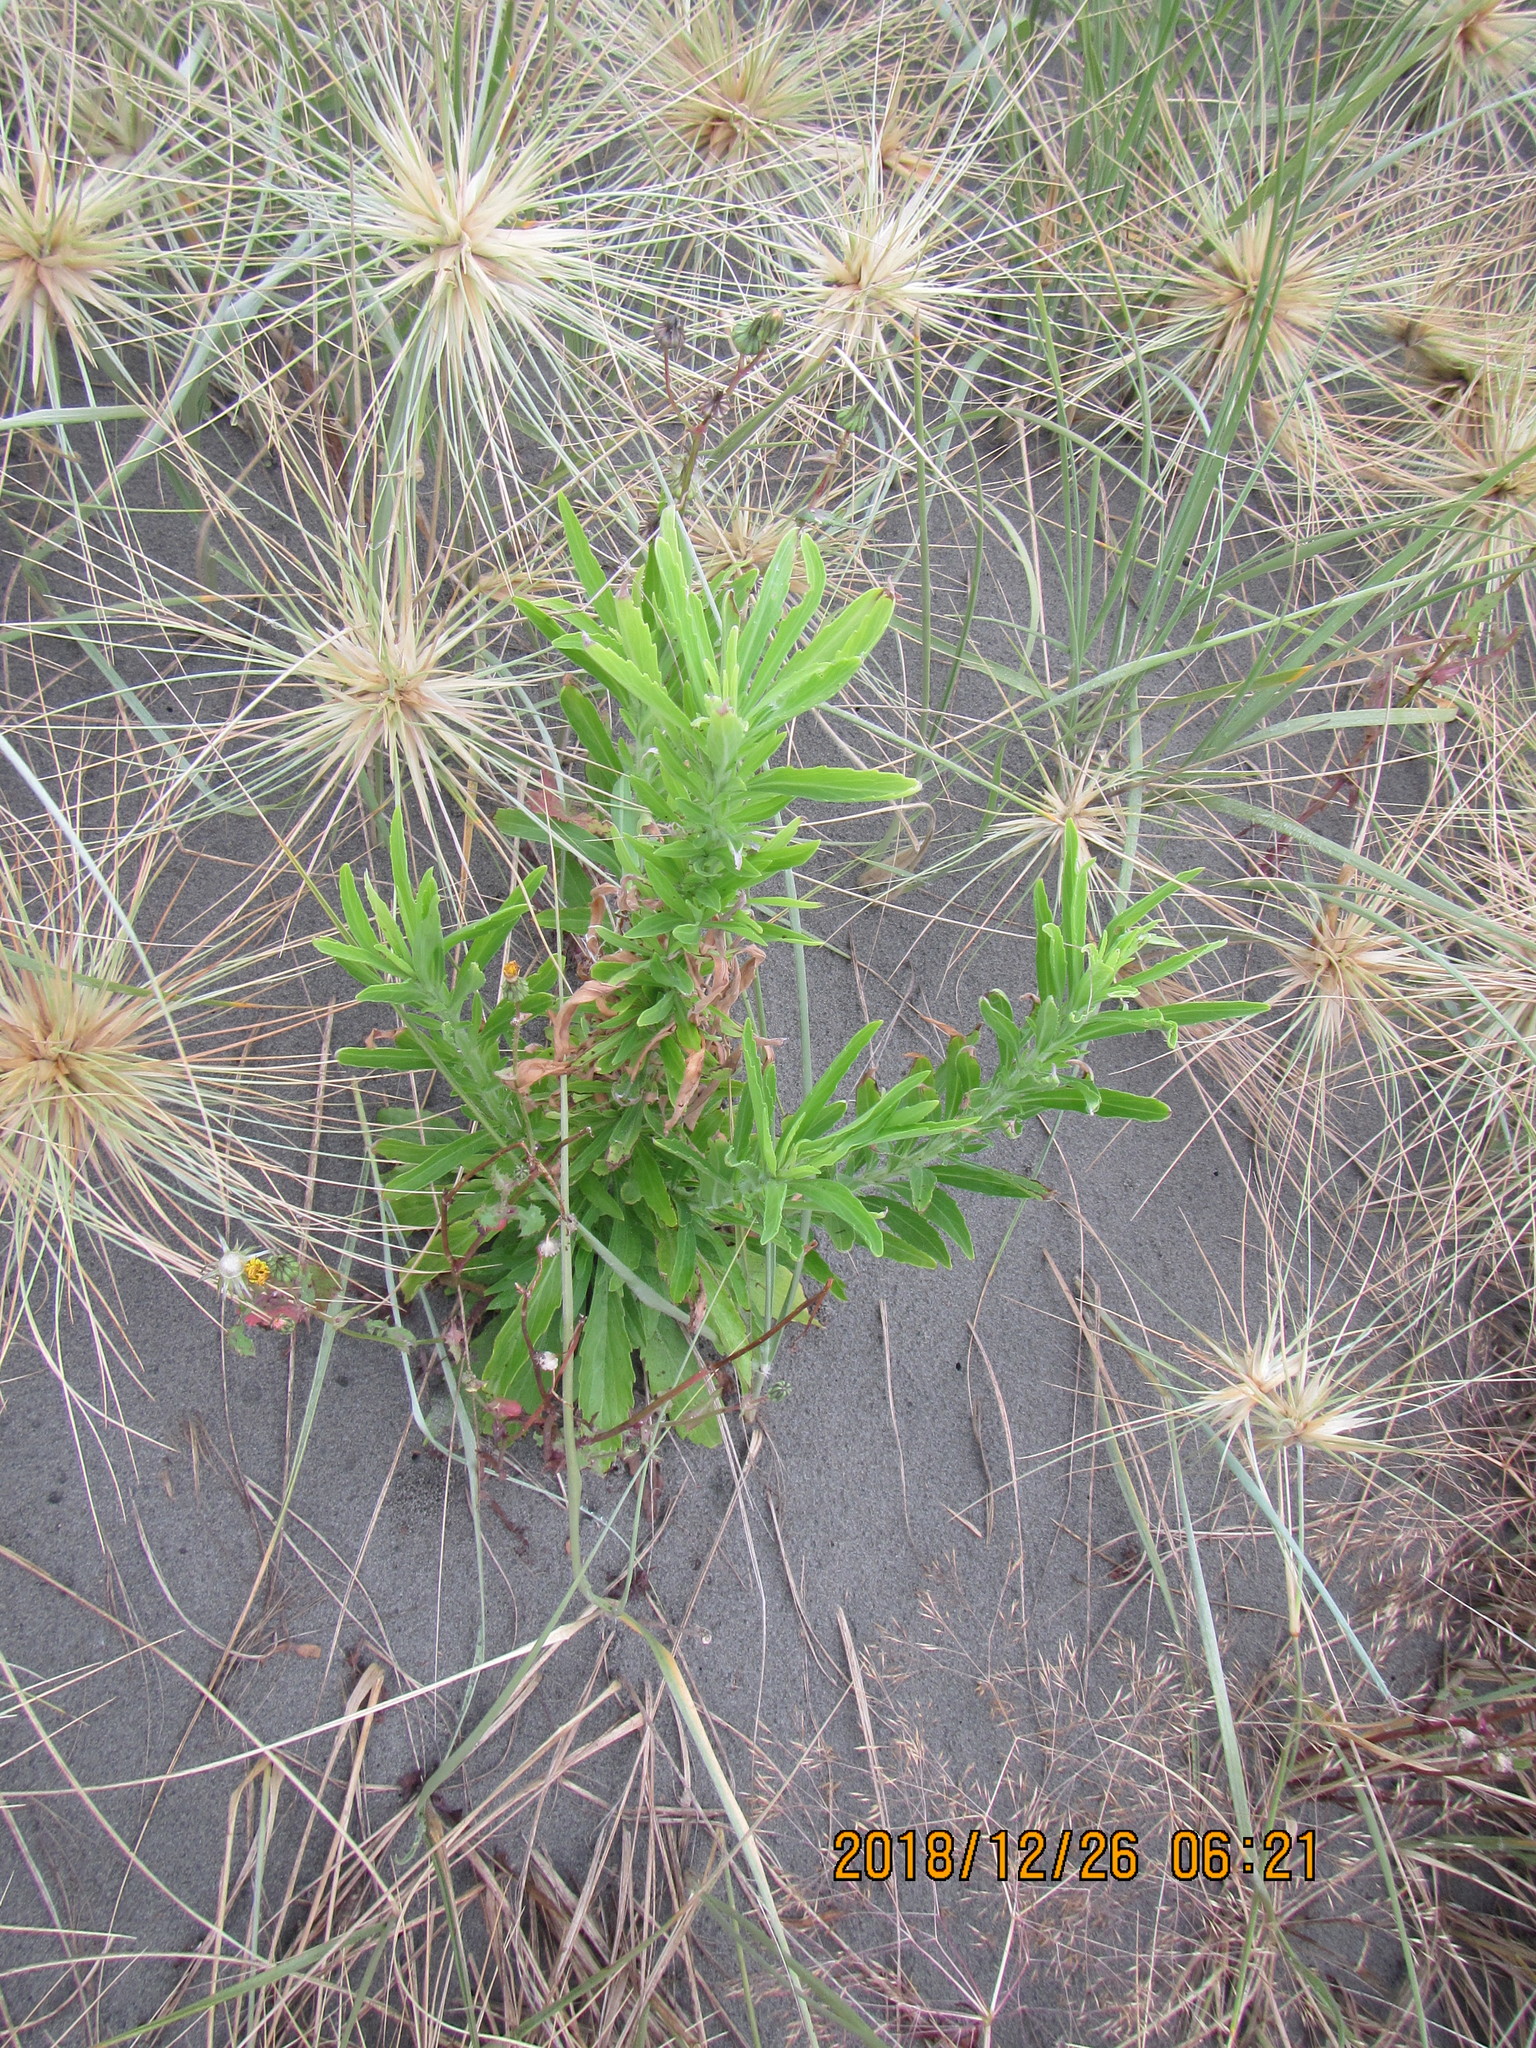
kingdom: Plantae
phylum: Tracheophyta
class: Magnoliopsida
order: Asterales
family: Asteraceae
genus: Erigeron
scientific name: Erigeron sumatrensis
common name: Daisy
